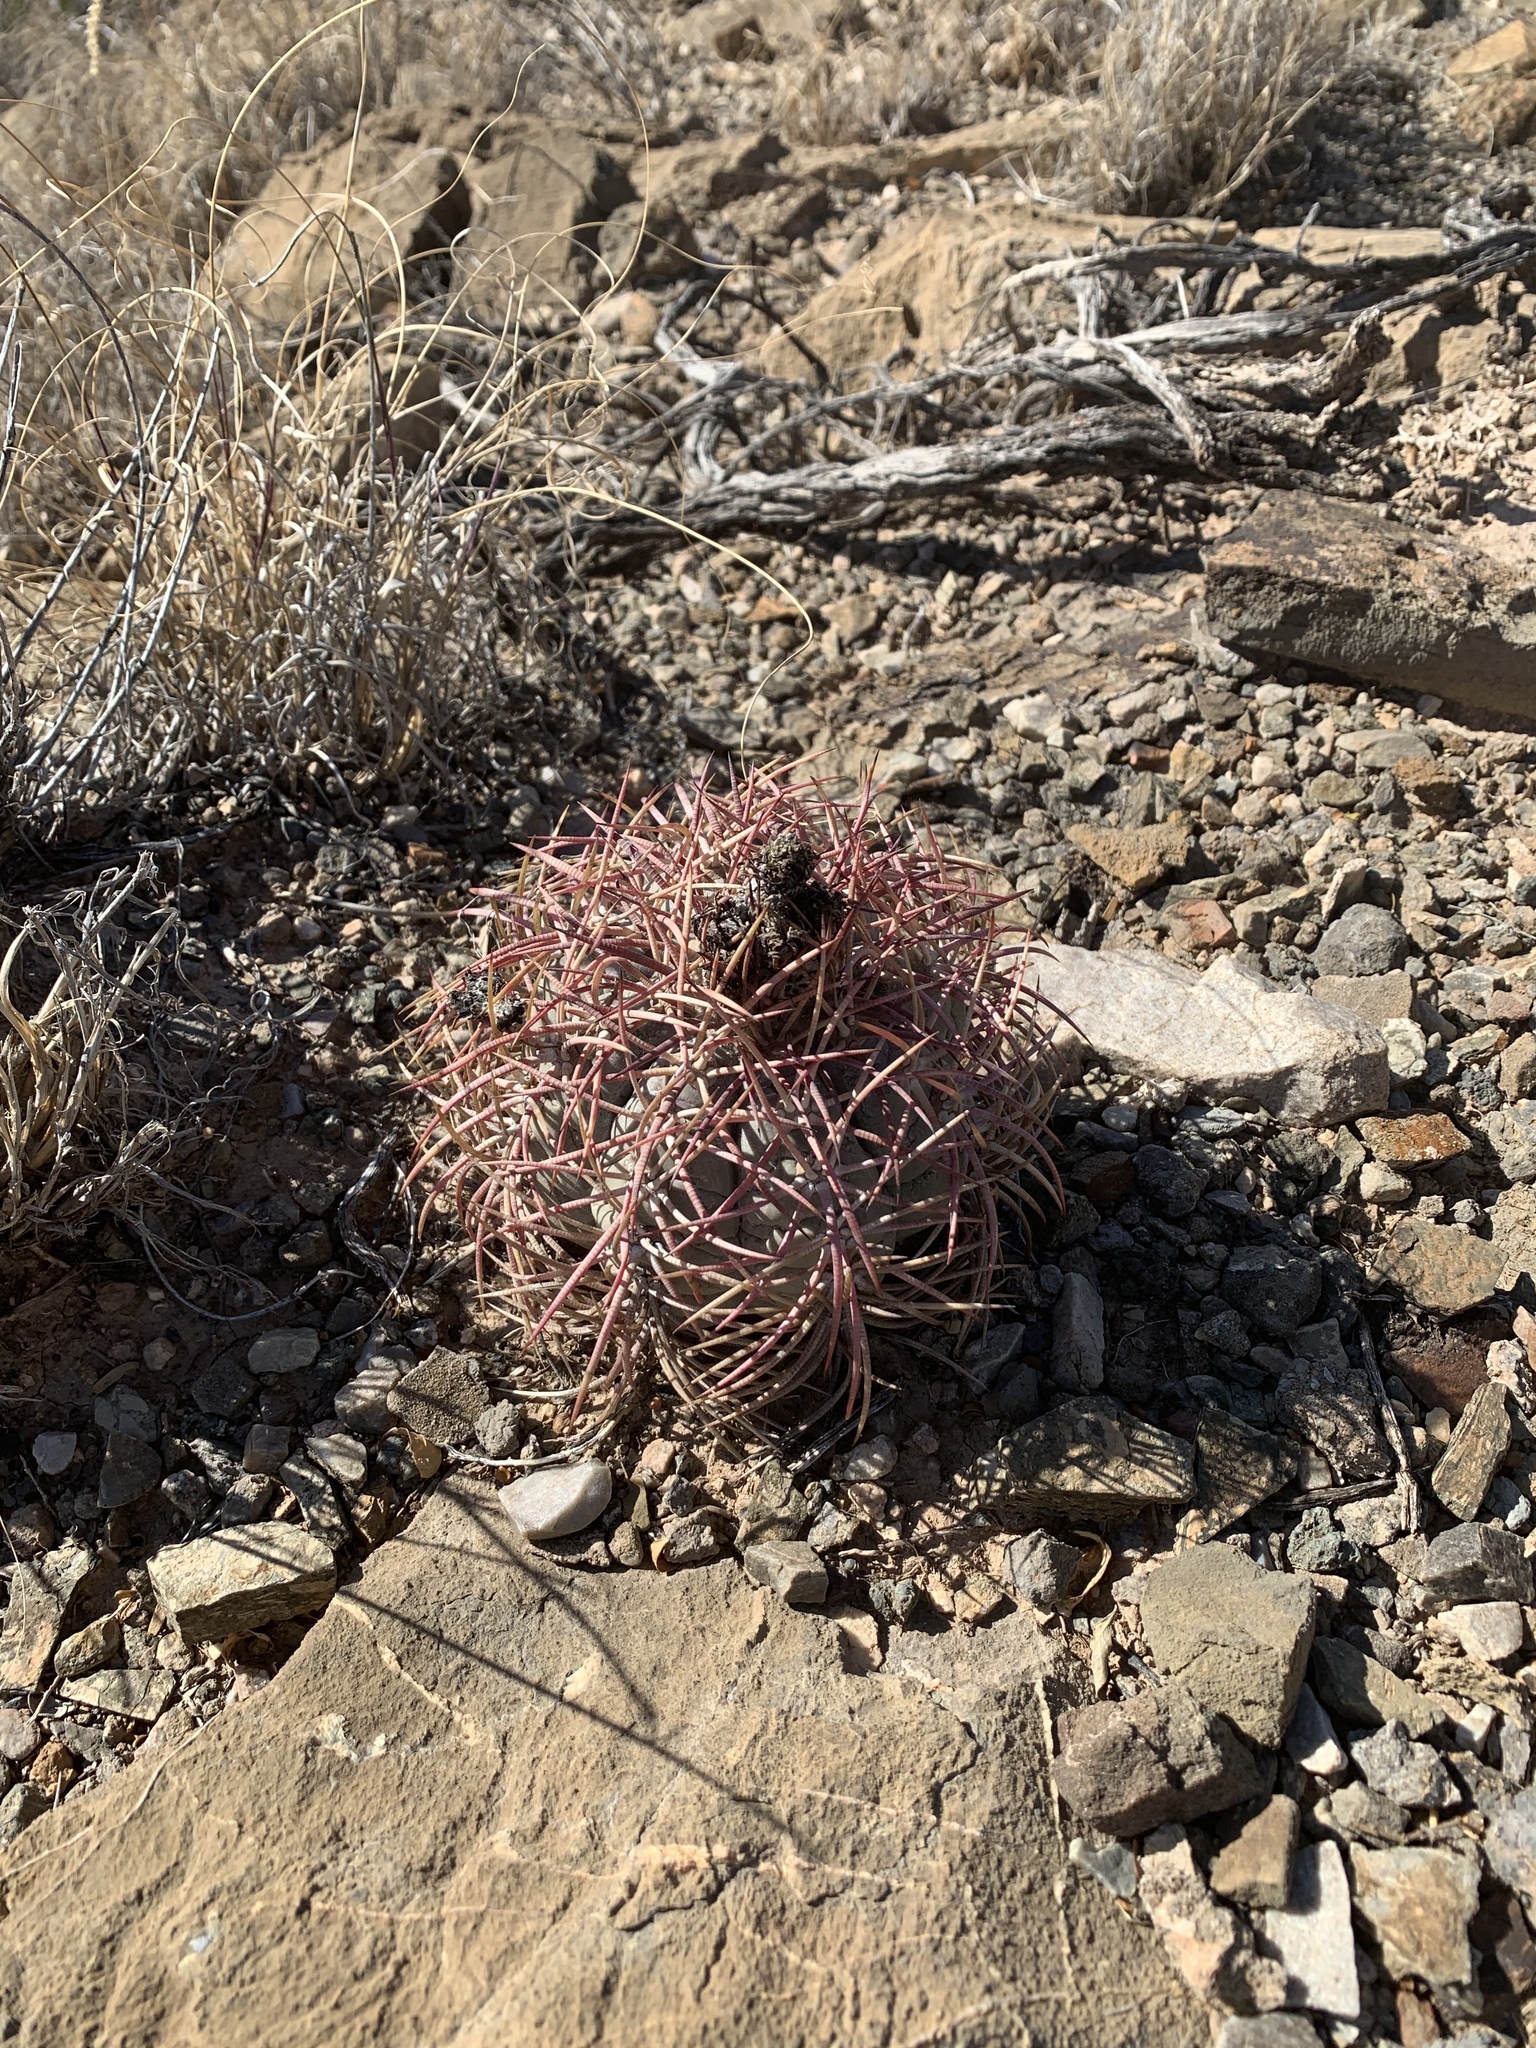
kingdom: Plantae
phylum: Tracheophyta
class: Magnoliopsida
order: Caryophyllales
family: Cactaceae
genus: Echinocactus
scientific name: Echinocactus horizonthalonius
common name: Devilshead
